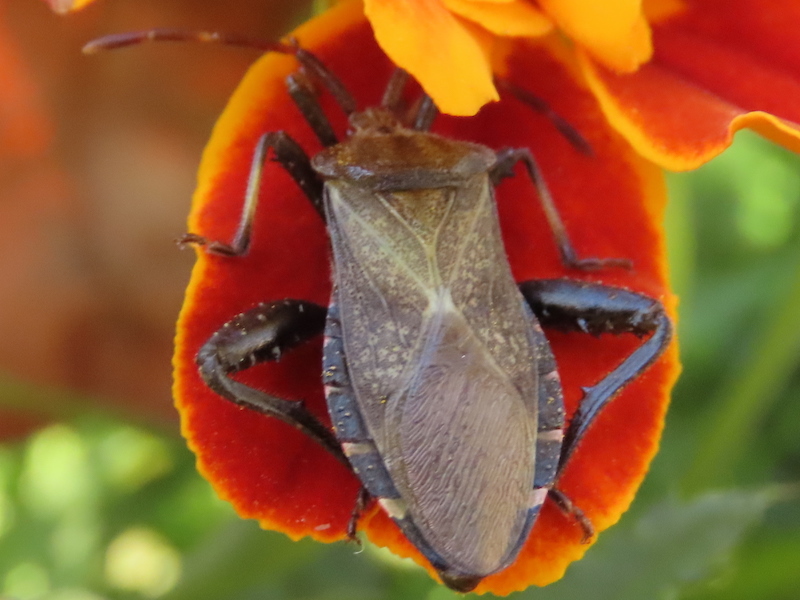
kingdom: Animalia
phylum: Arthropoda
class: Insecta
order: Hemiptera
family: Coreidae
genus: Euthochtha
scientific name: Euthochtha galeator
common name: Helmeted squash bug
